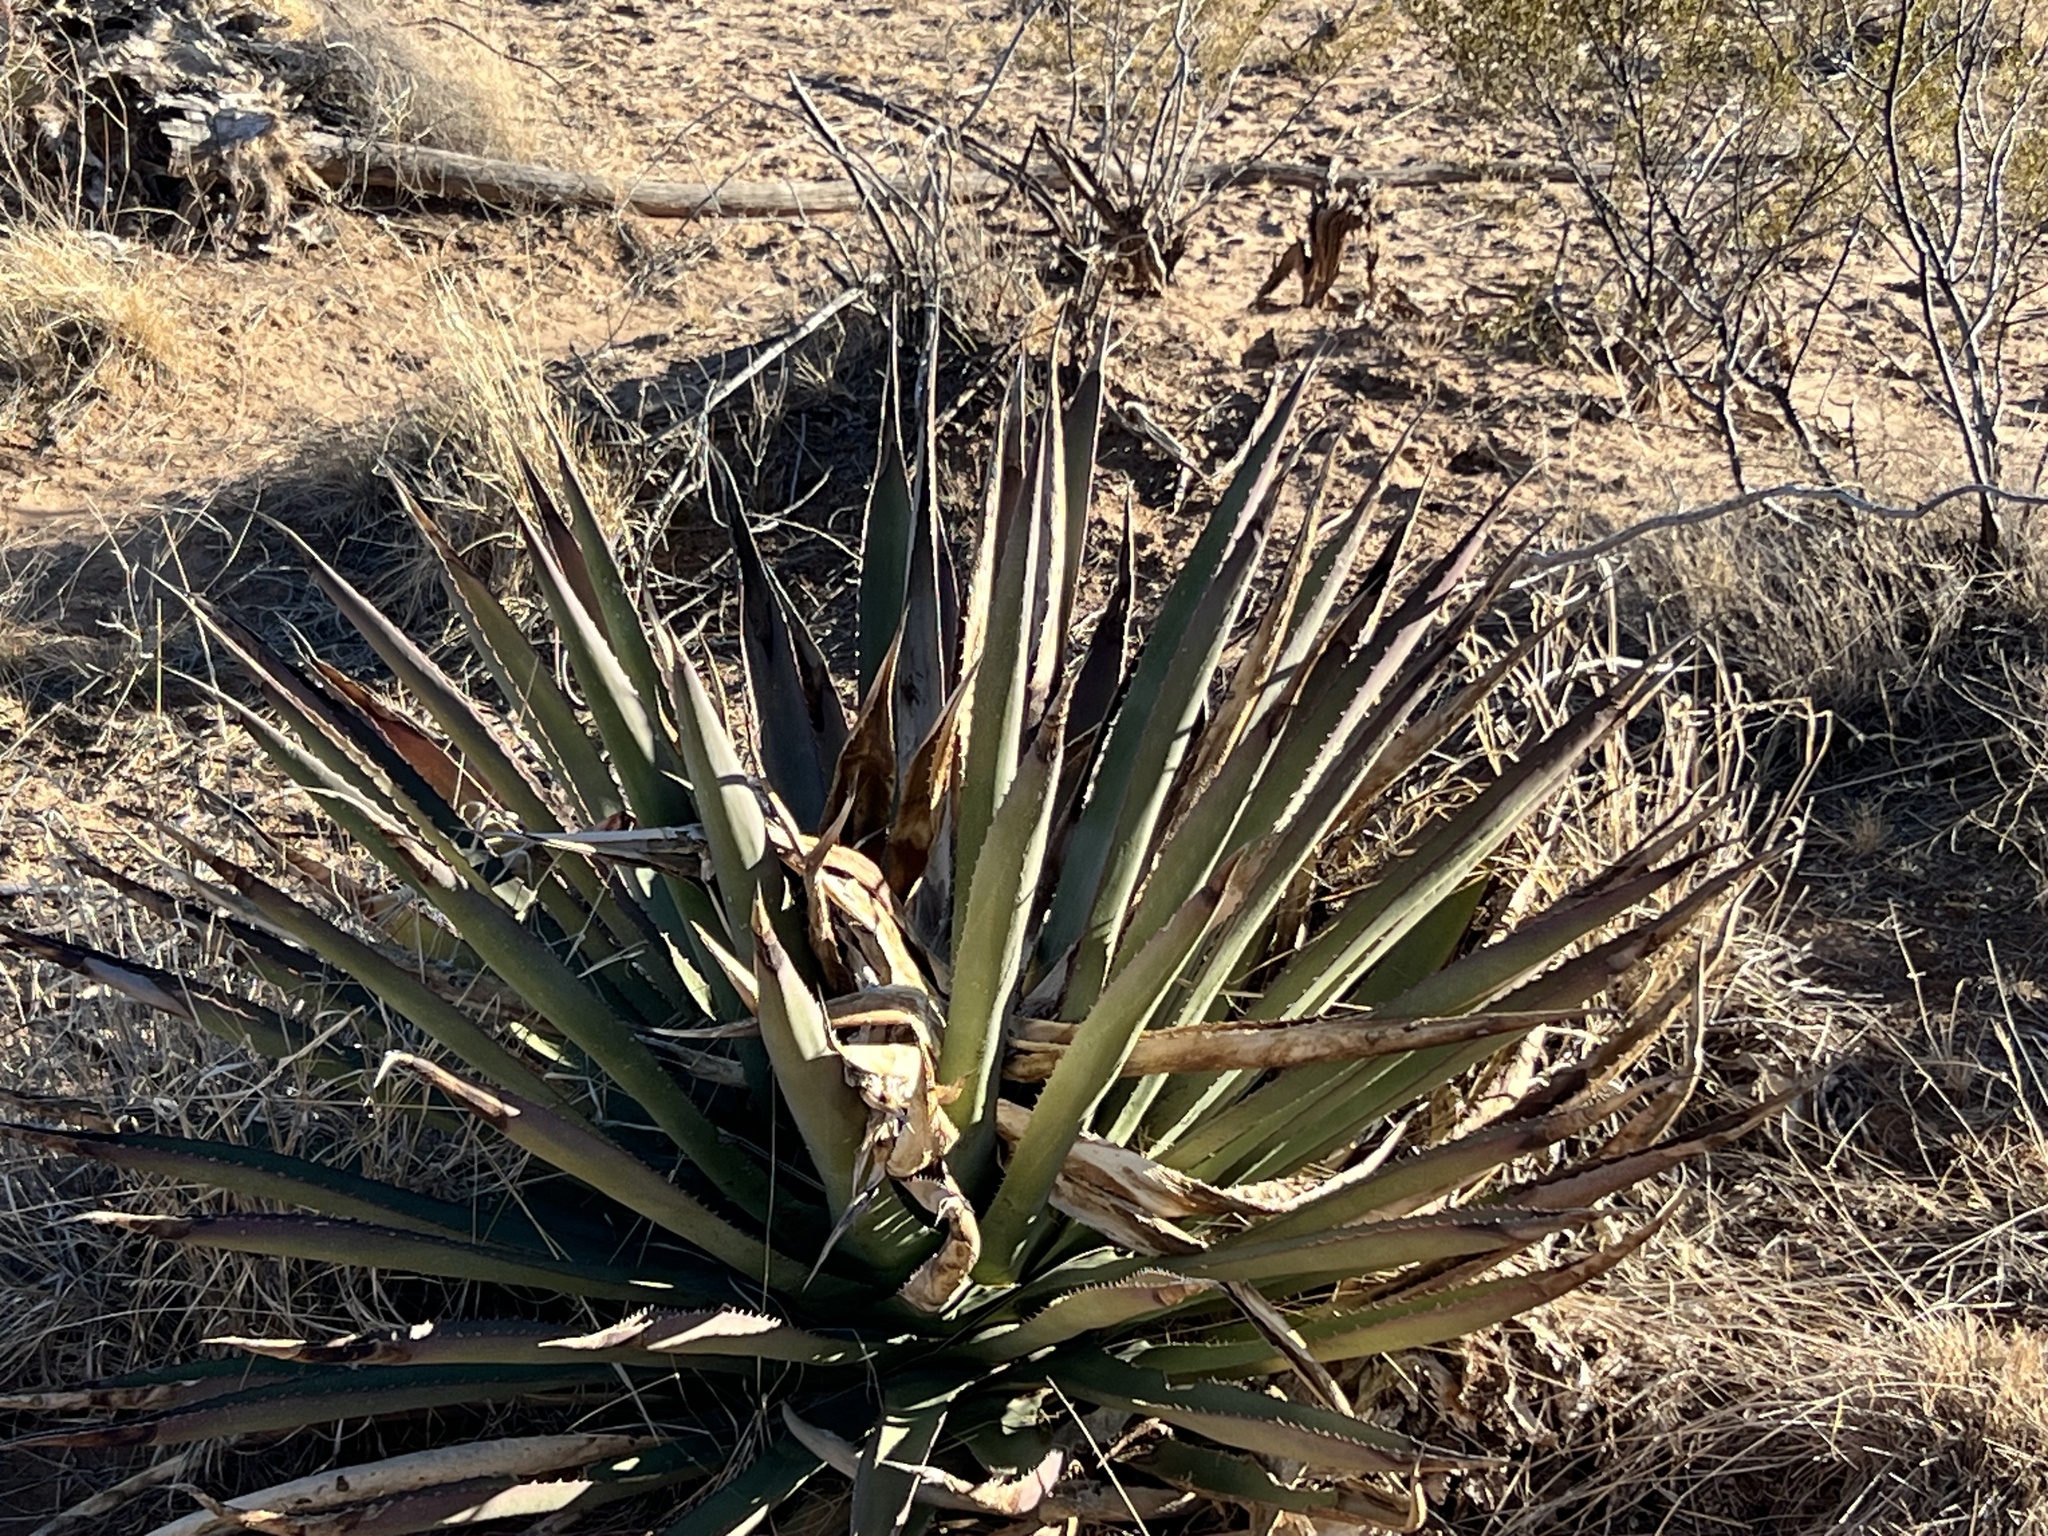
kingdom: Plantae
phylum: Tracheophyta
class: Liliopsida
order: Asparagales
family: Asparagaceae
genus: Agave
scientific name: Agave palmeri
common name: Palmer agave
